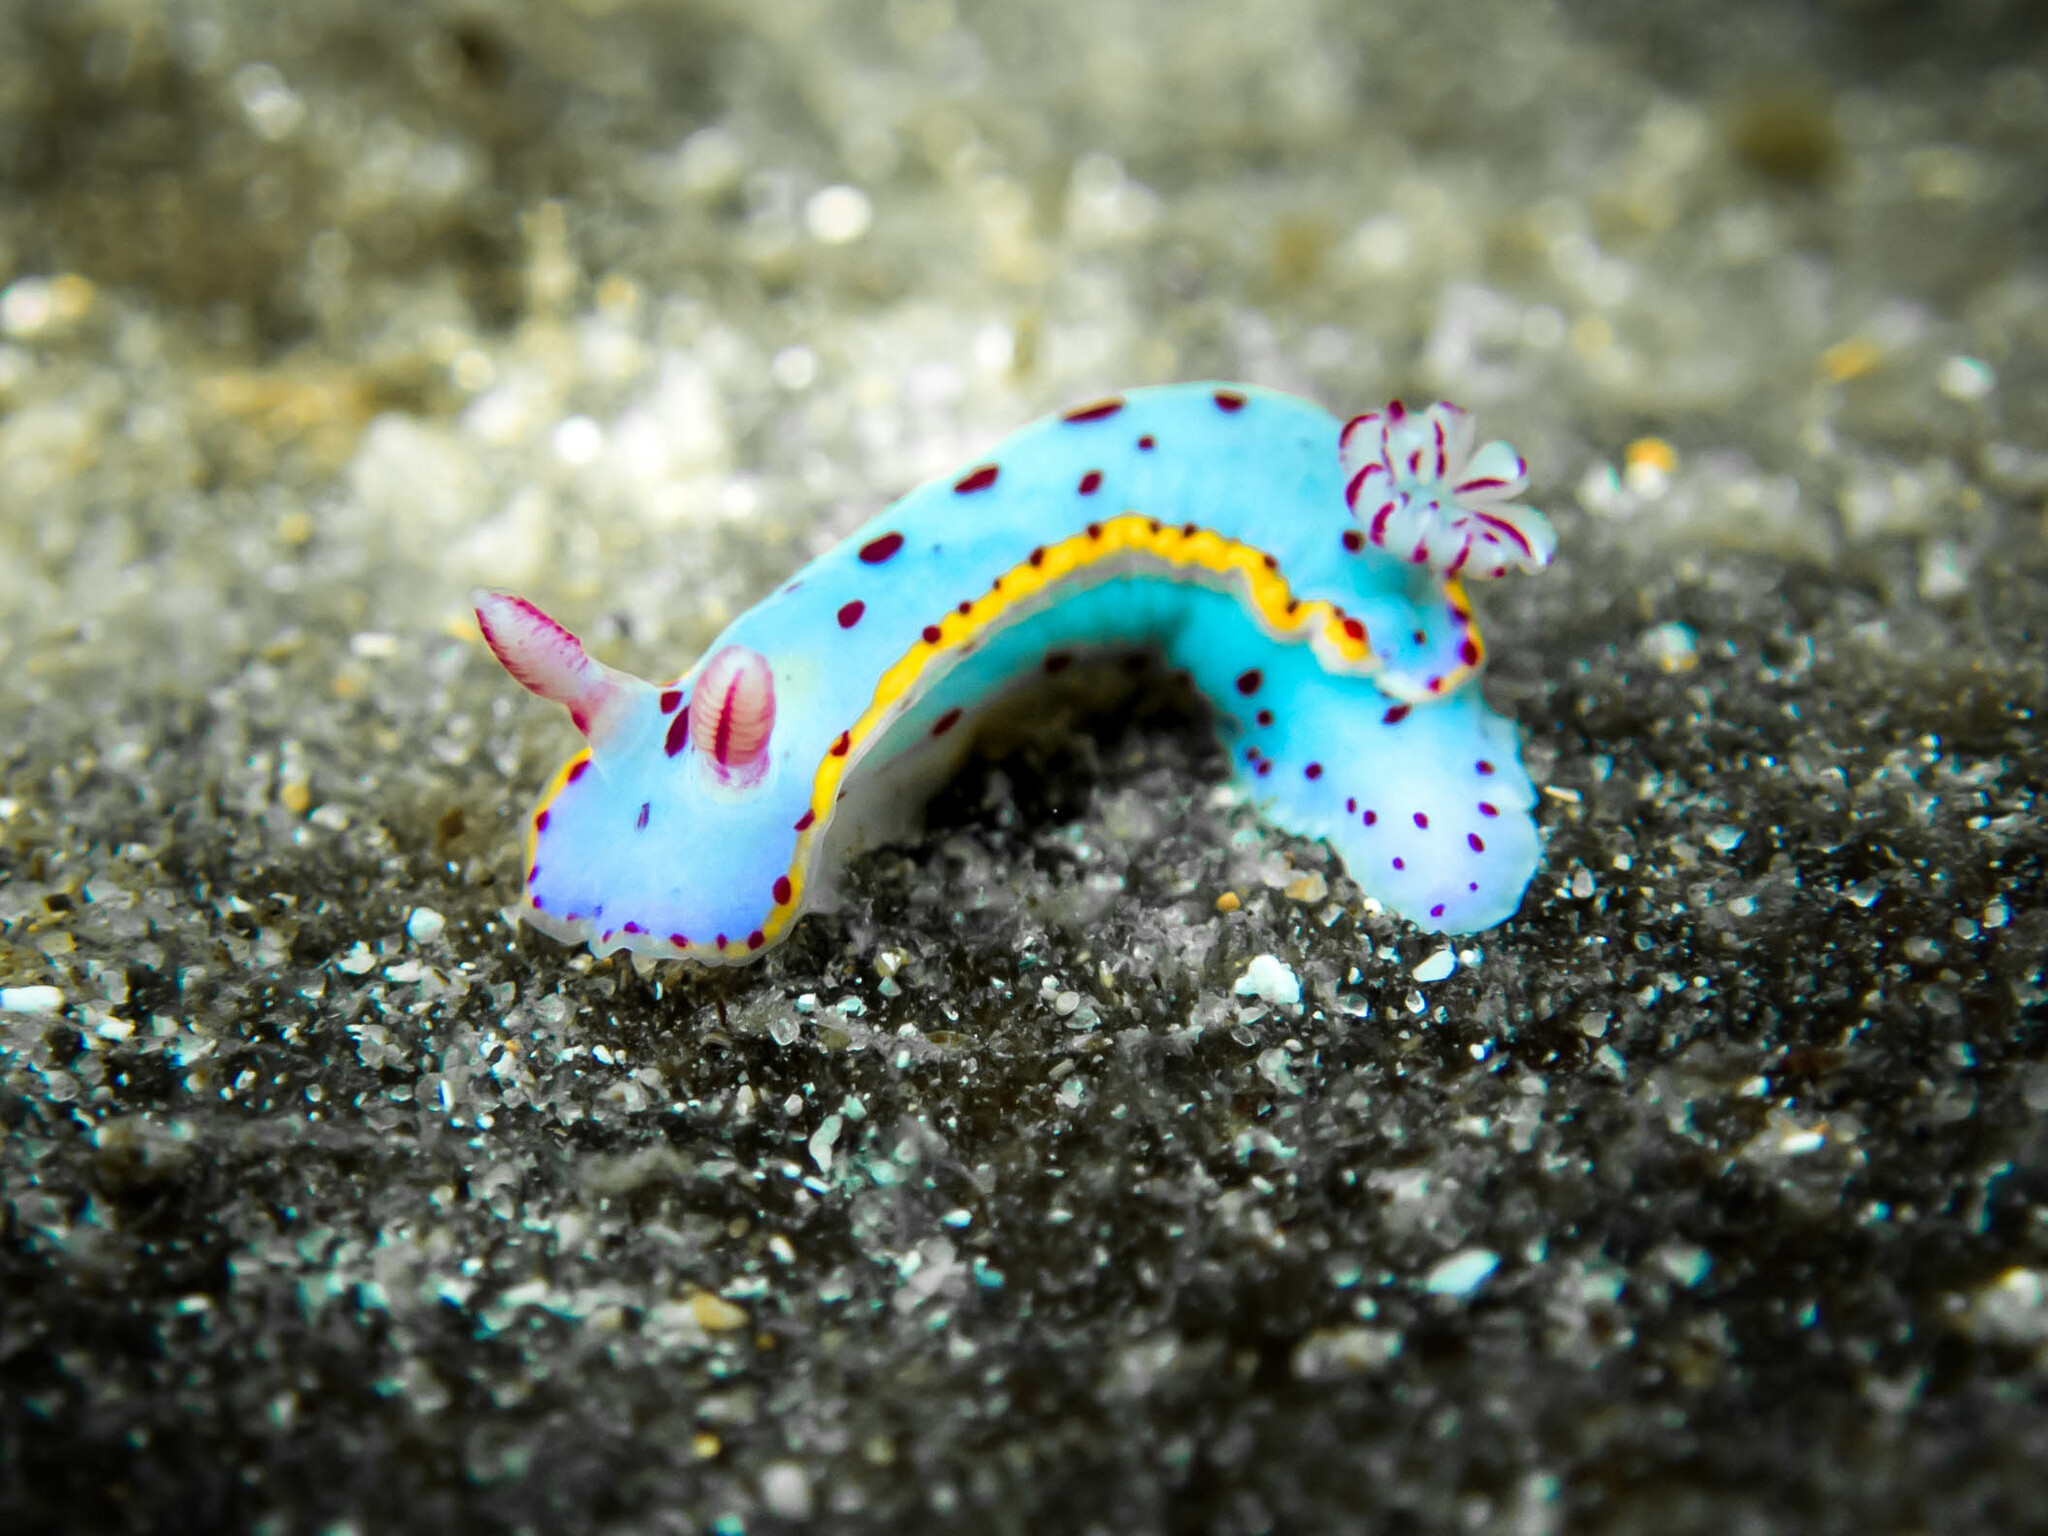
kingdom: Animalia
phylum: Mollusca
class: Gastropoda
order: Nudibranchia
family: Chromodorididae
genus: Hypselodoris
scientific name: Hypselodoris bennetti
